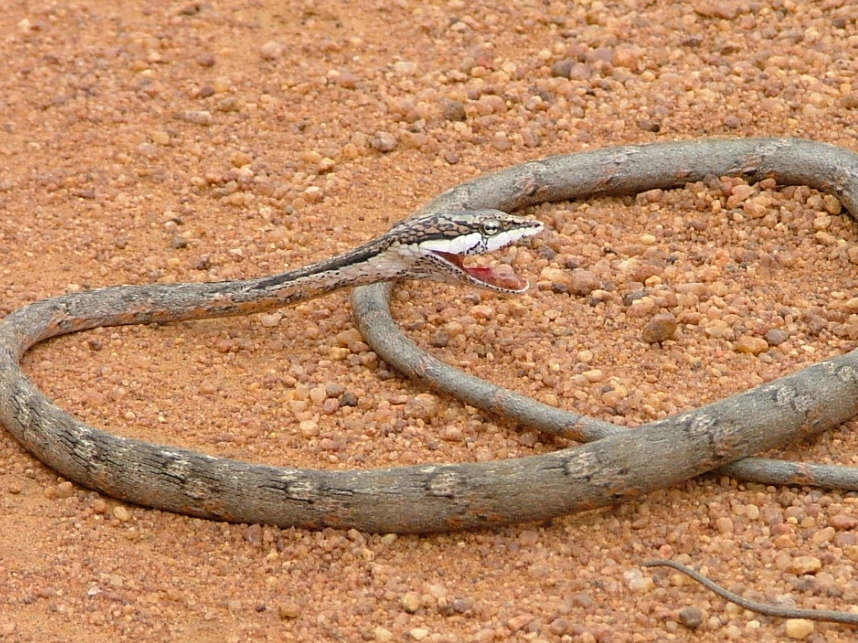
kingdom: Animalia
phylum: Chordata
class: Squamata
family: Colubridae
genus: Thelotornis
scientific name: Thelotornis capensis
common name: Savanna vine snake
